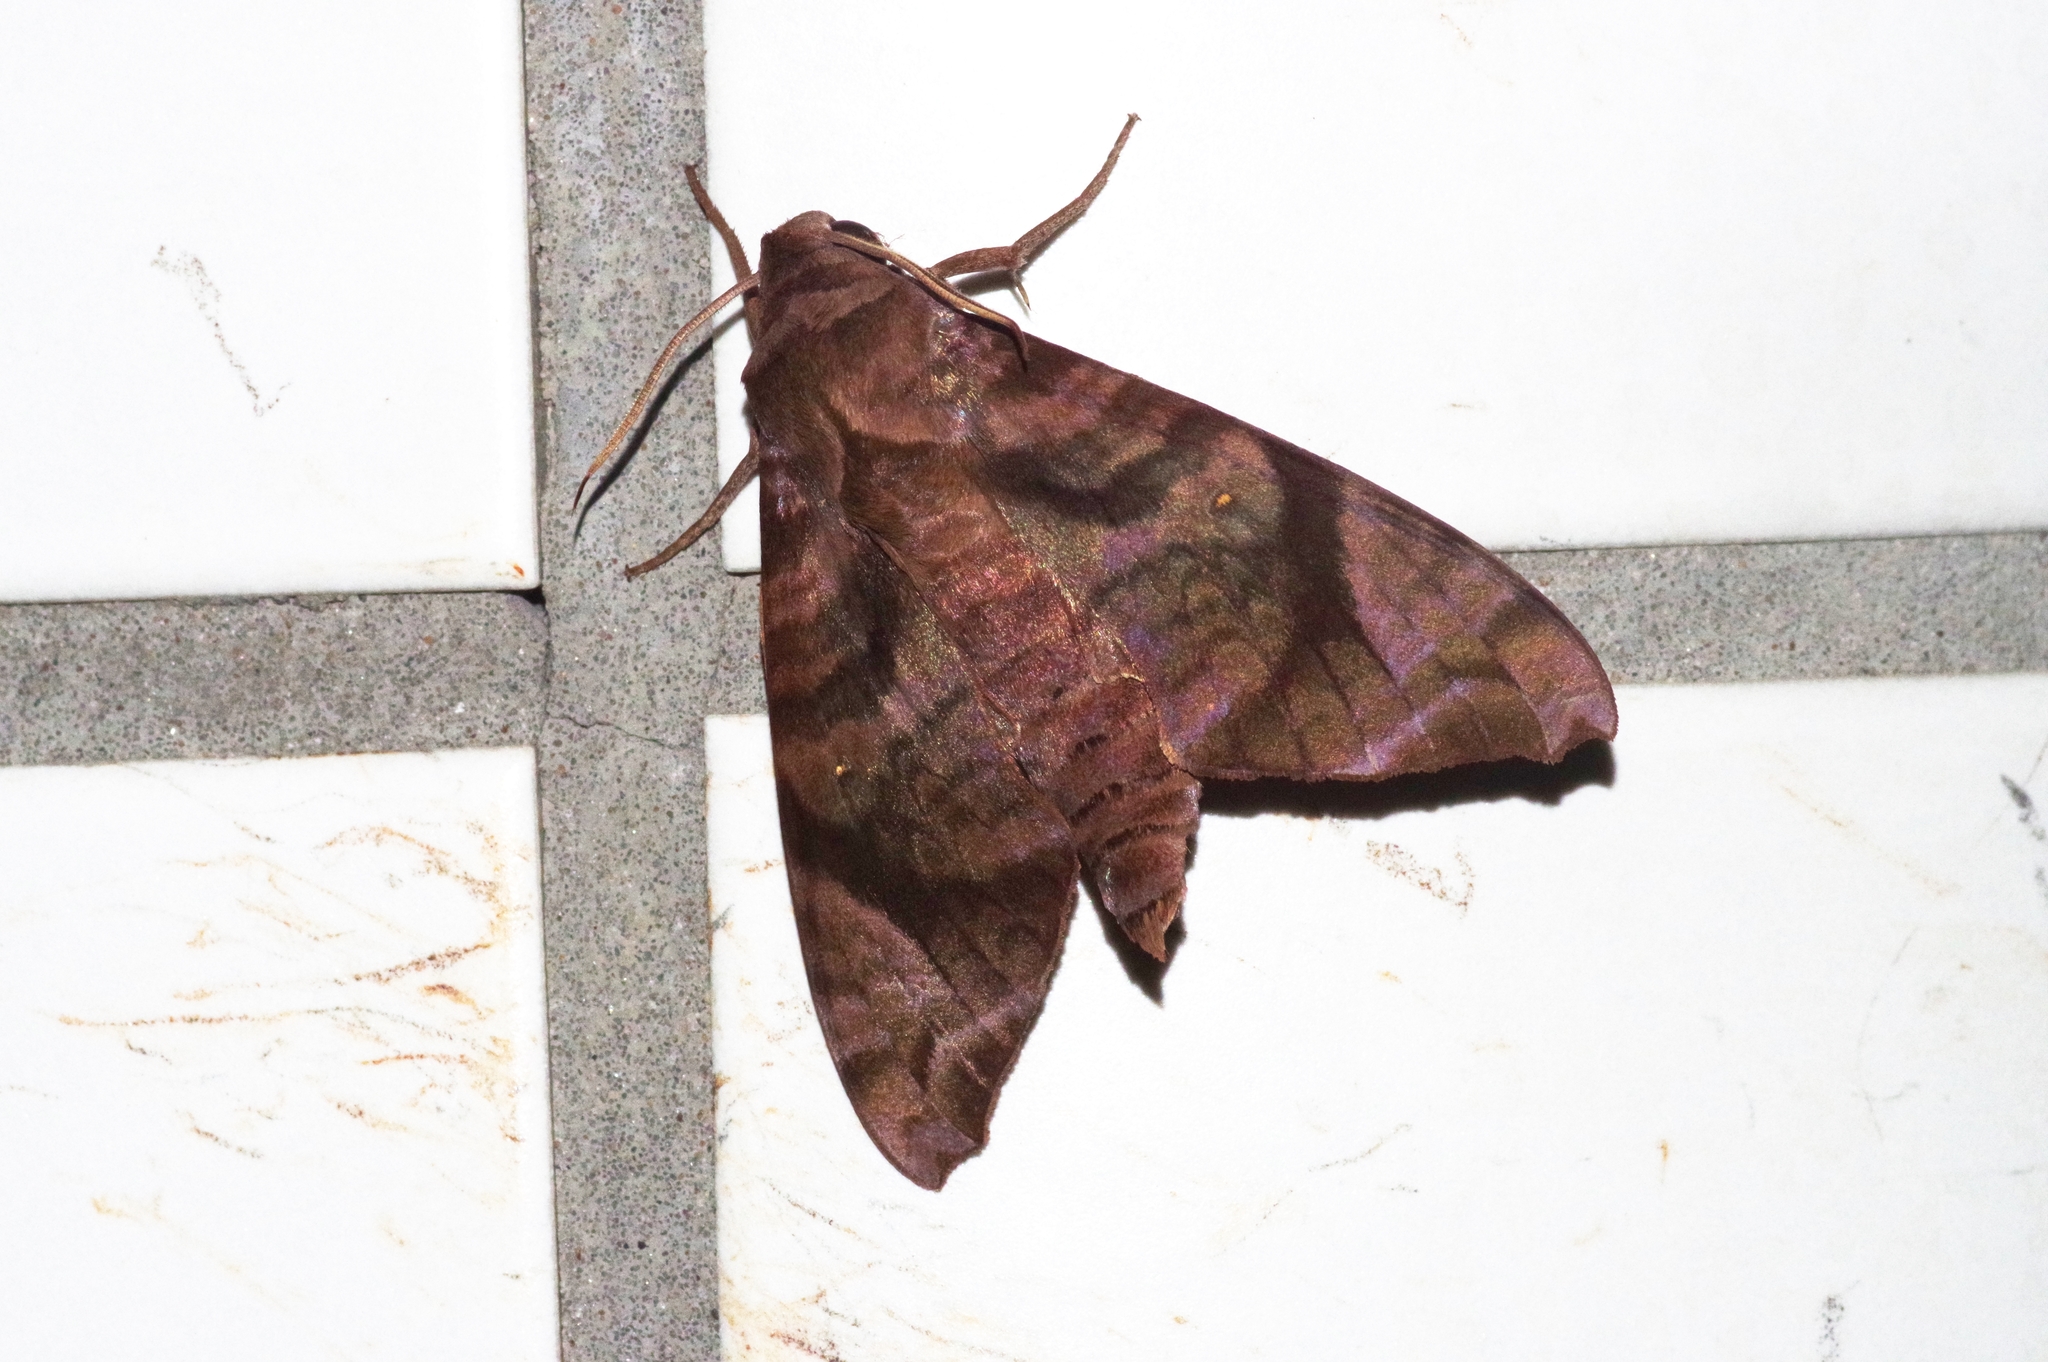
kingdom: Animalia
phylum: Arthropoda
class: Insecta
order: Lepidoptera
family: Sphingidae
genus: Acosmeryx
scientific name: Acosmeryx castanea
